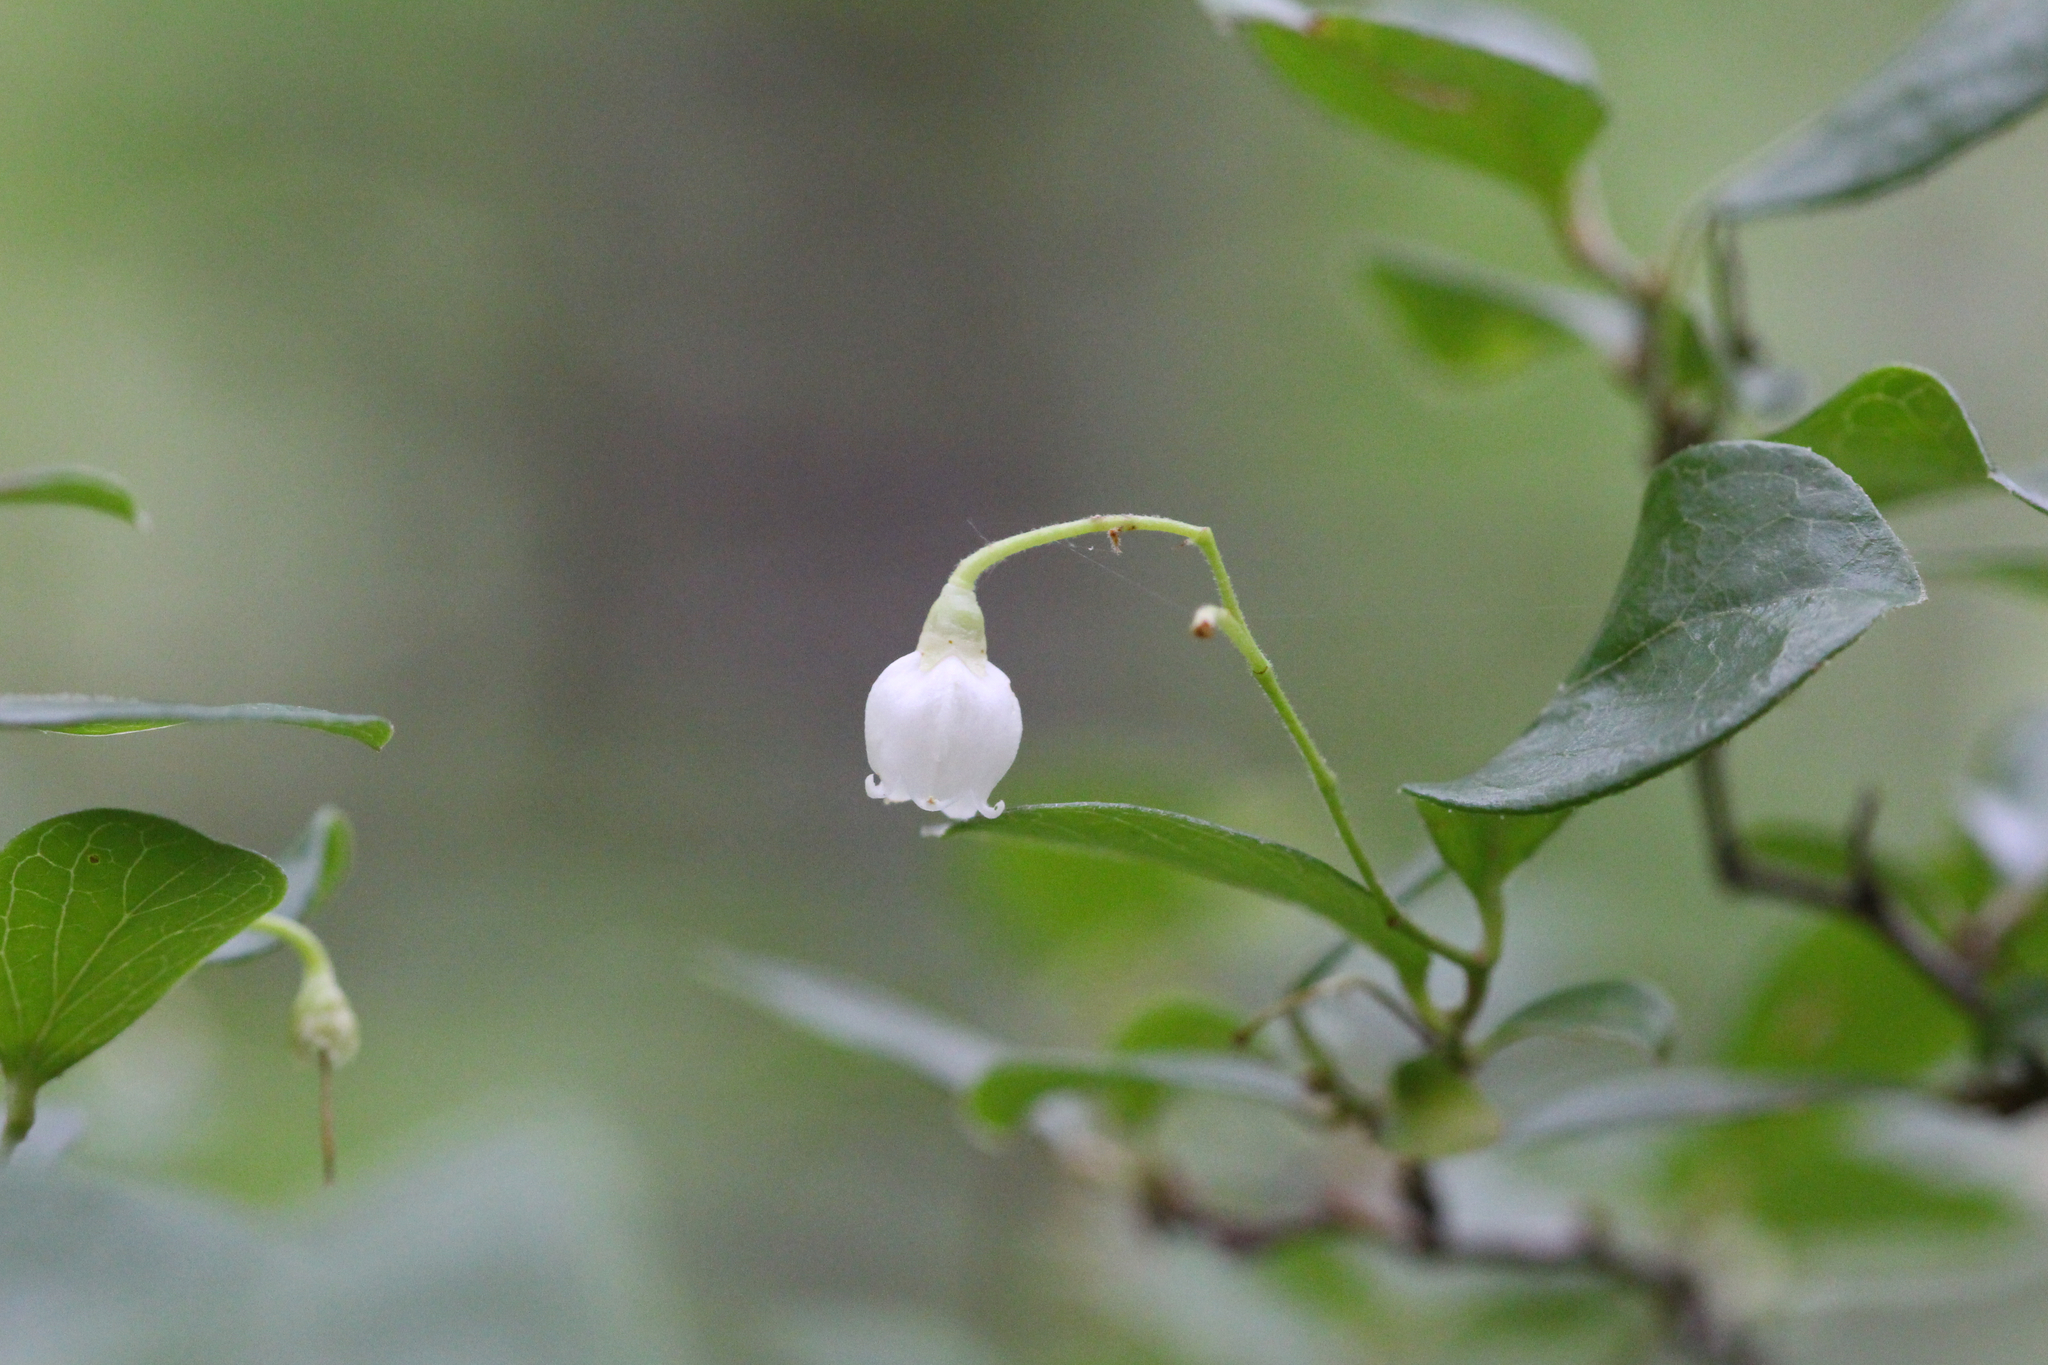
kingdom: Plantae
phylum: Tracheophyta
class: Magnoliopsida
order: Ericales
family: Ericaceae
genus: Vaccinium
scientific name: Vaccinium arboreum
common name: Farkleberry
